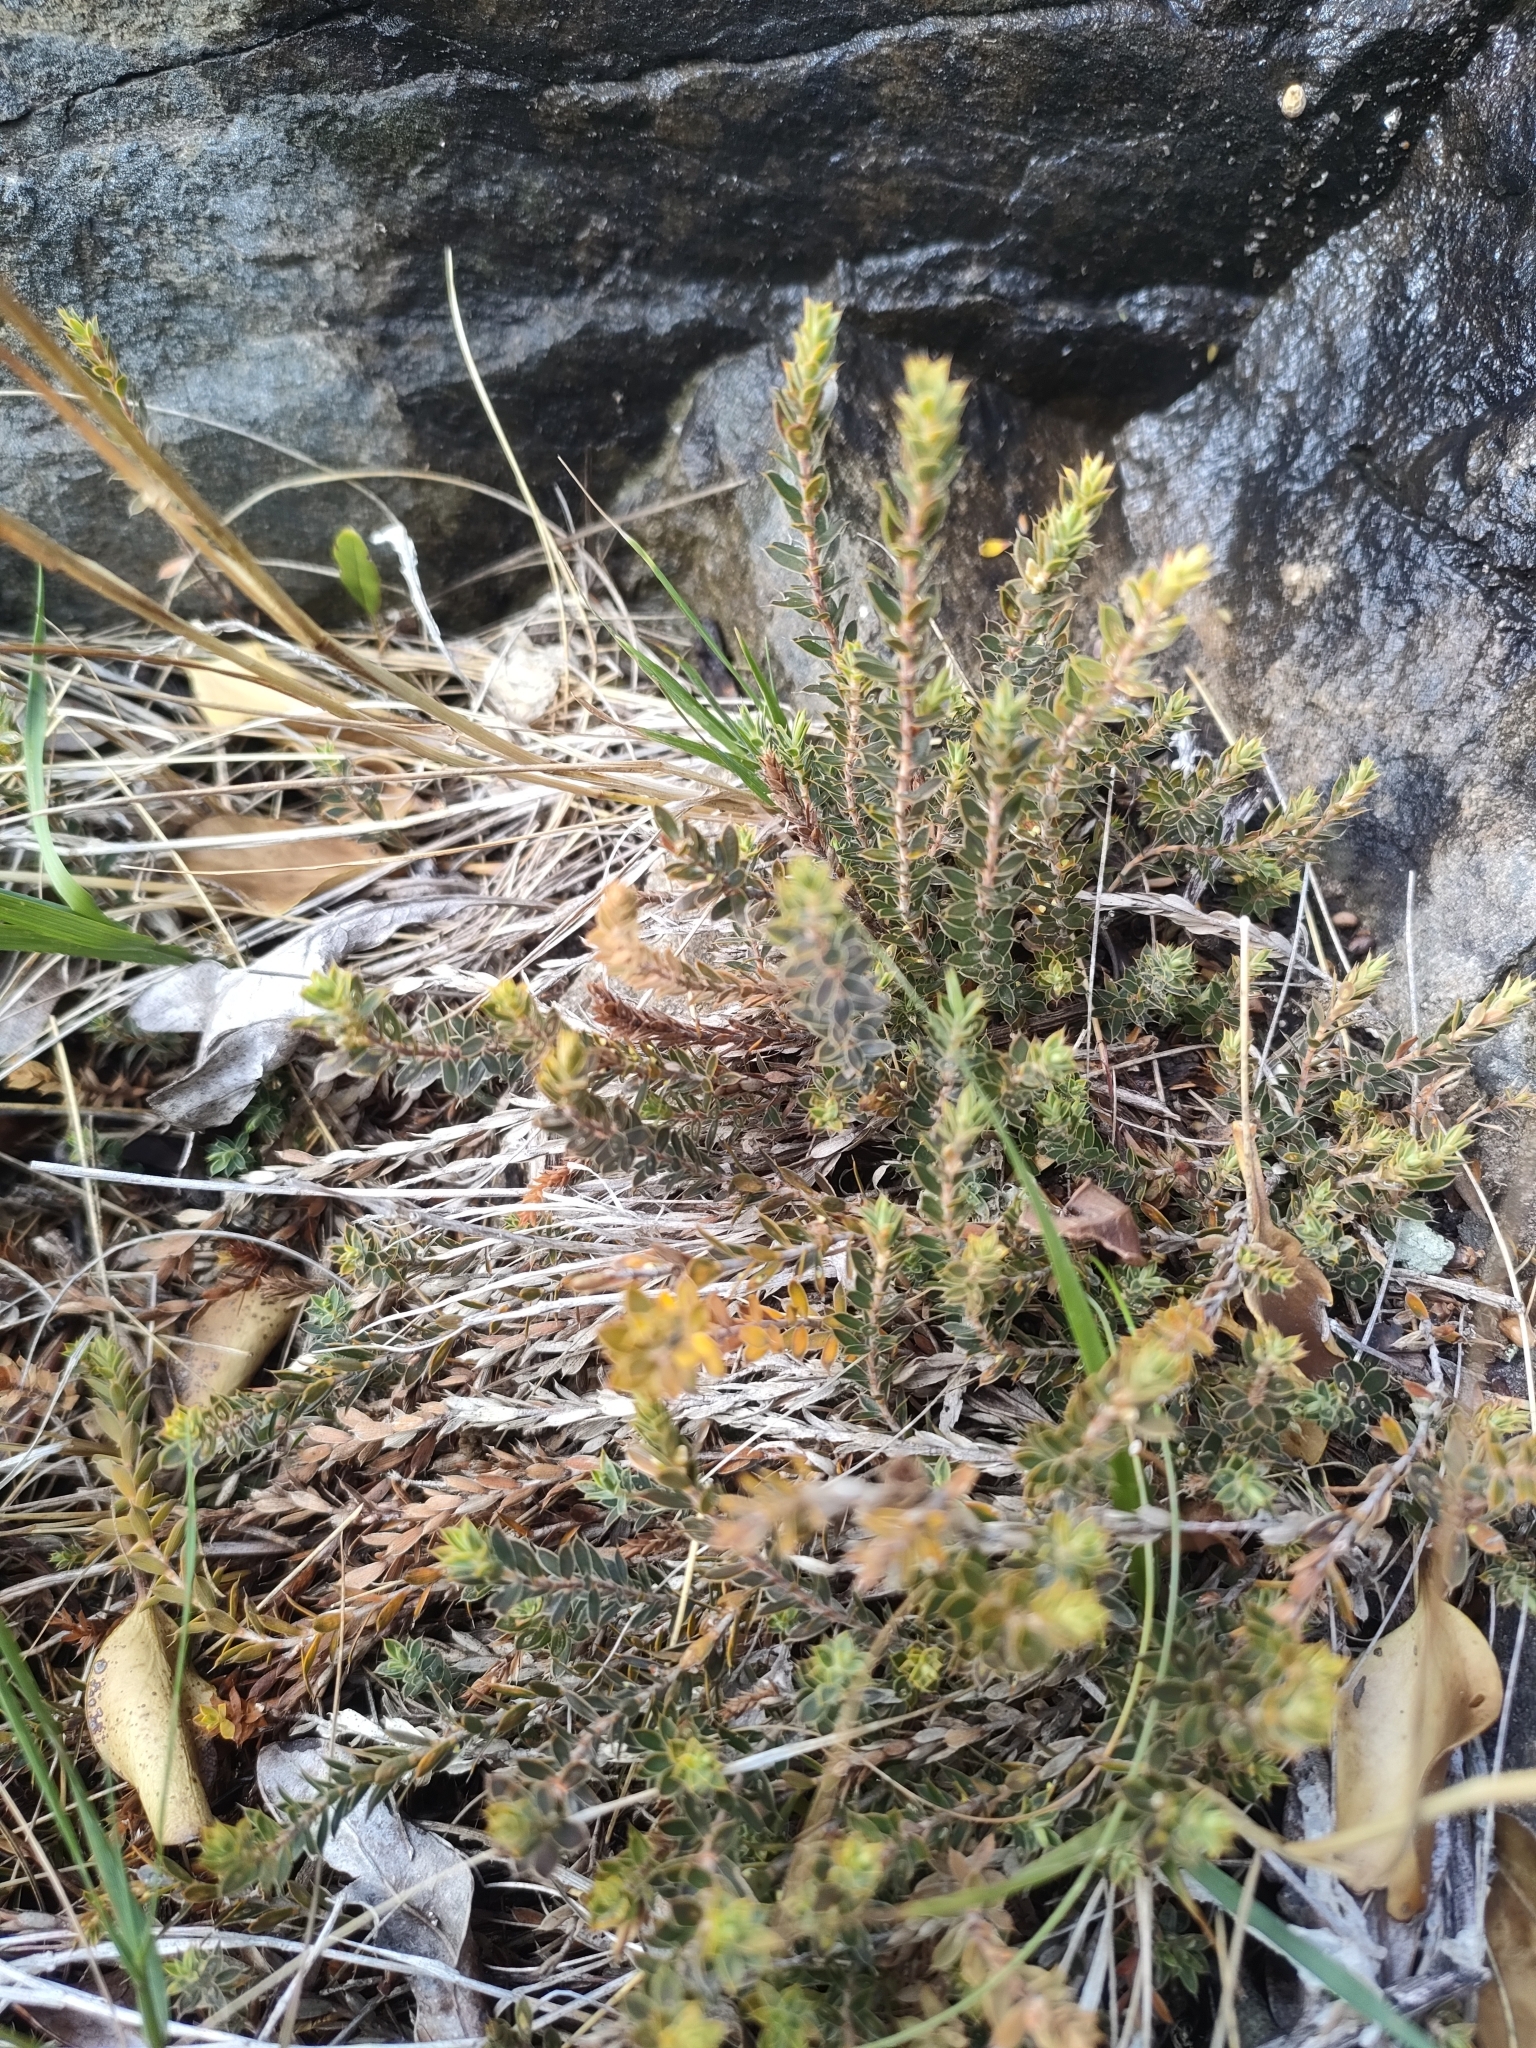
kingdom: Plantae
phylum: Tracheophyta
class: Magnoliopsida
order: Ericales
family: Ericaceae
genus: Styphelia
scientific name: Styphelia nesophila
